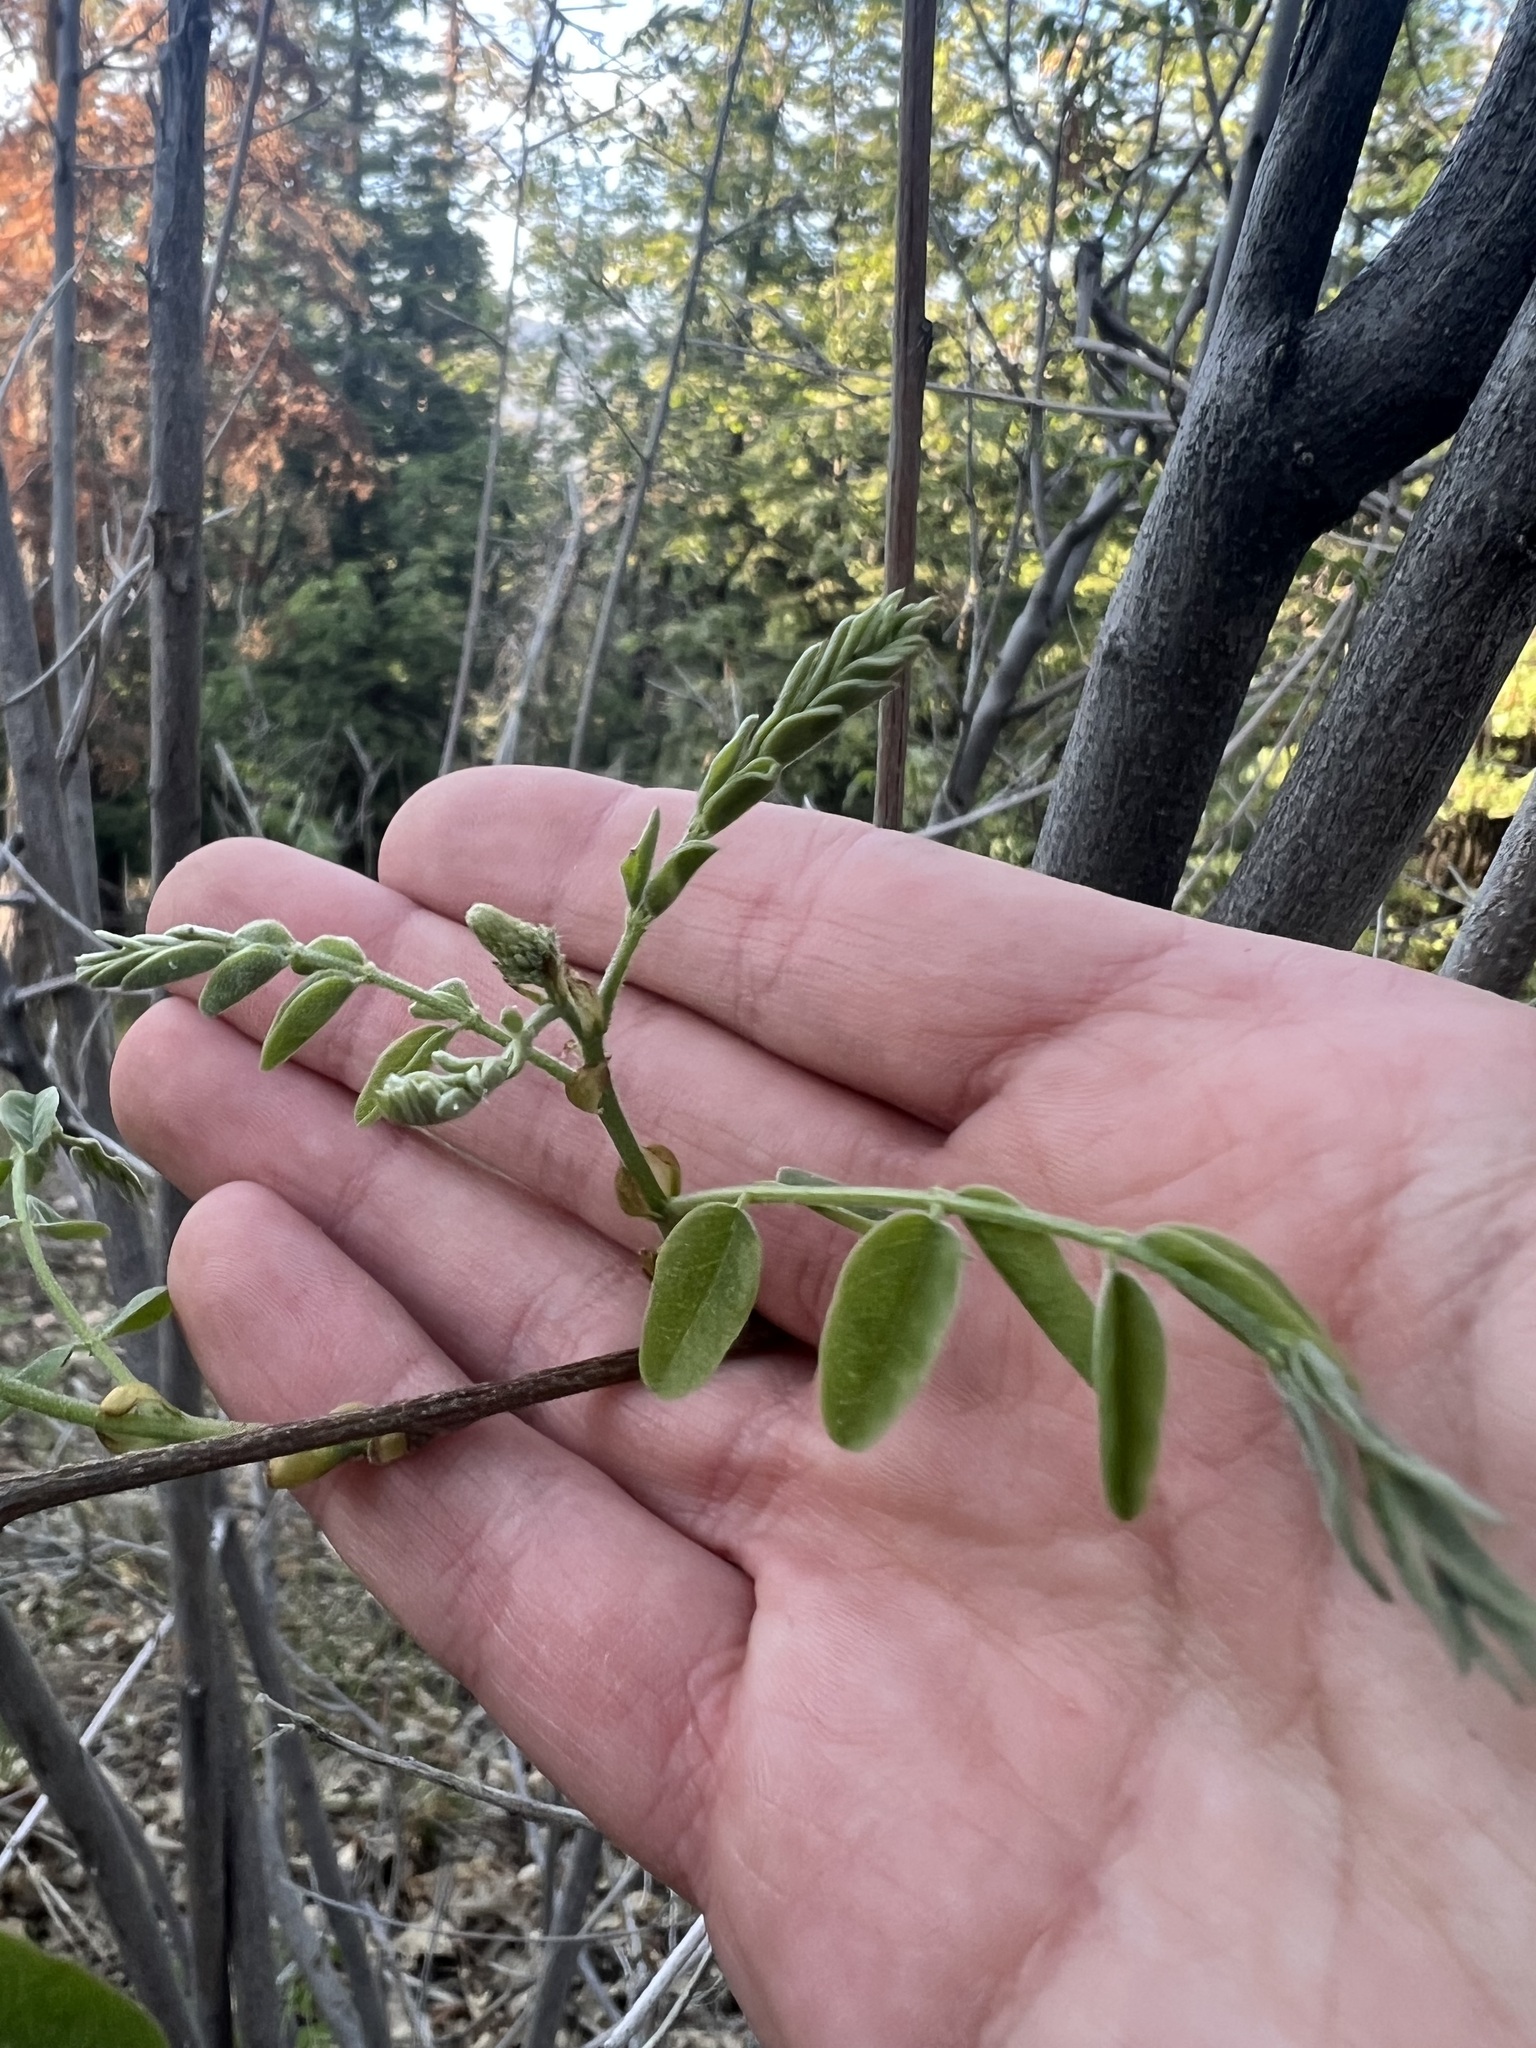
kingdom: Plantae
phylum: Tracheophyta
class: Magnoliopsida
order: Fabales
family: Fabaceae
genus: Amorpha
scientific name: Amorpha californica
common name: California indigobush
